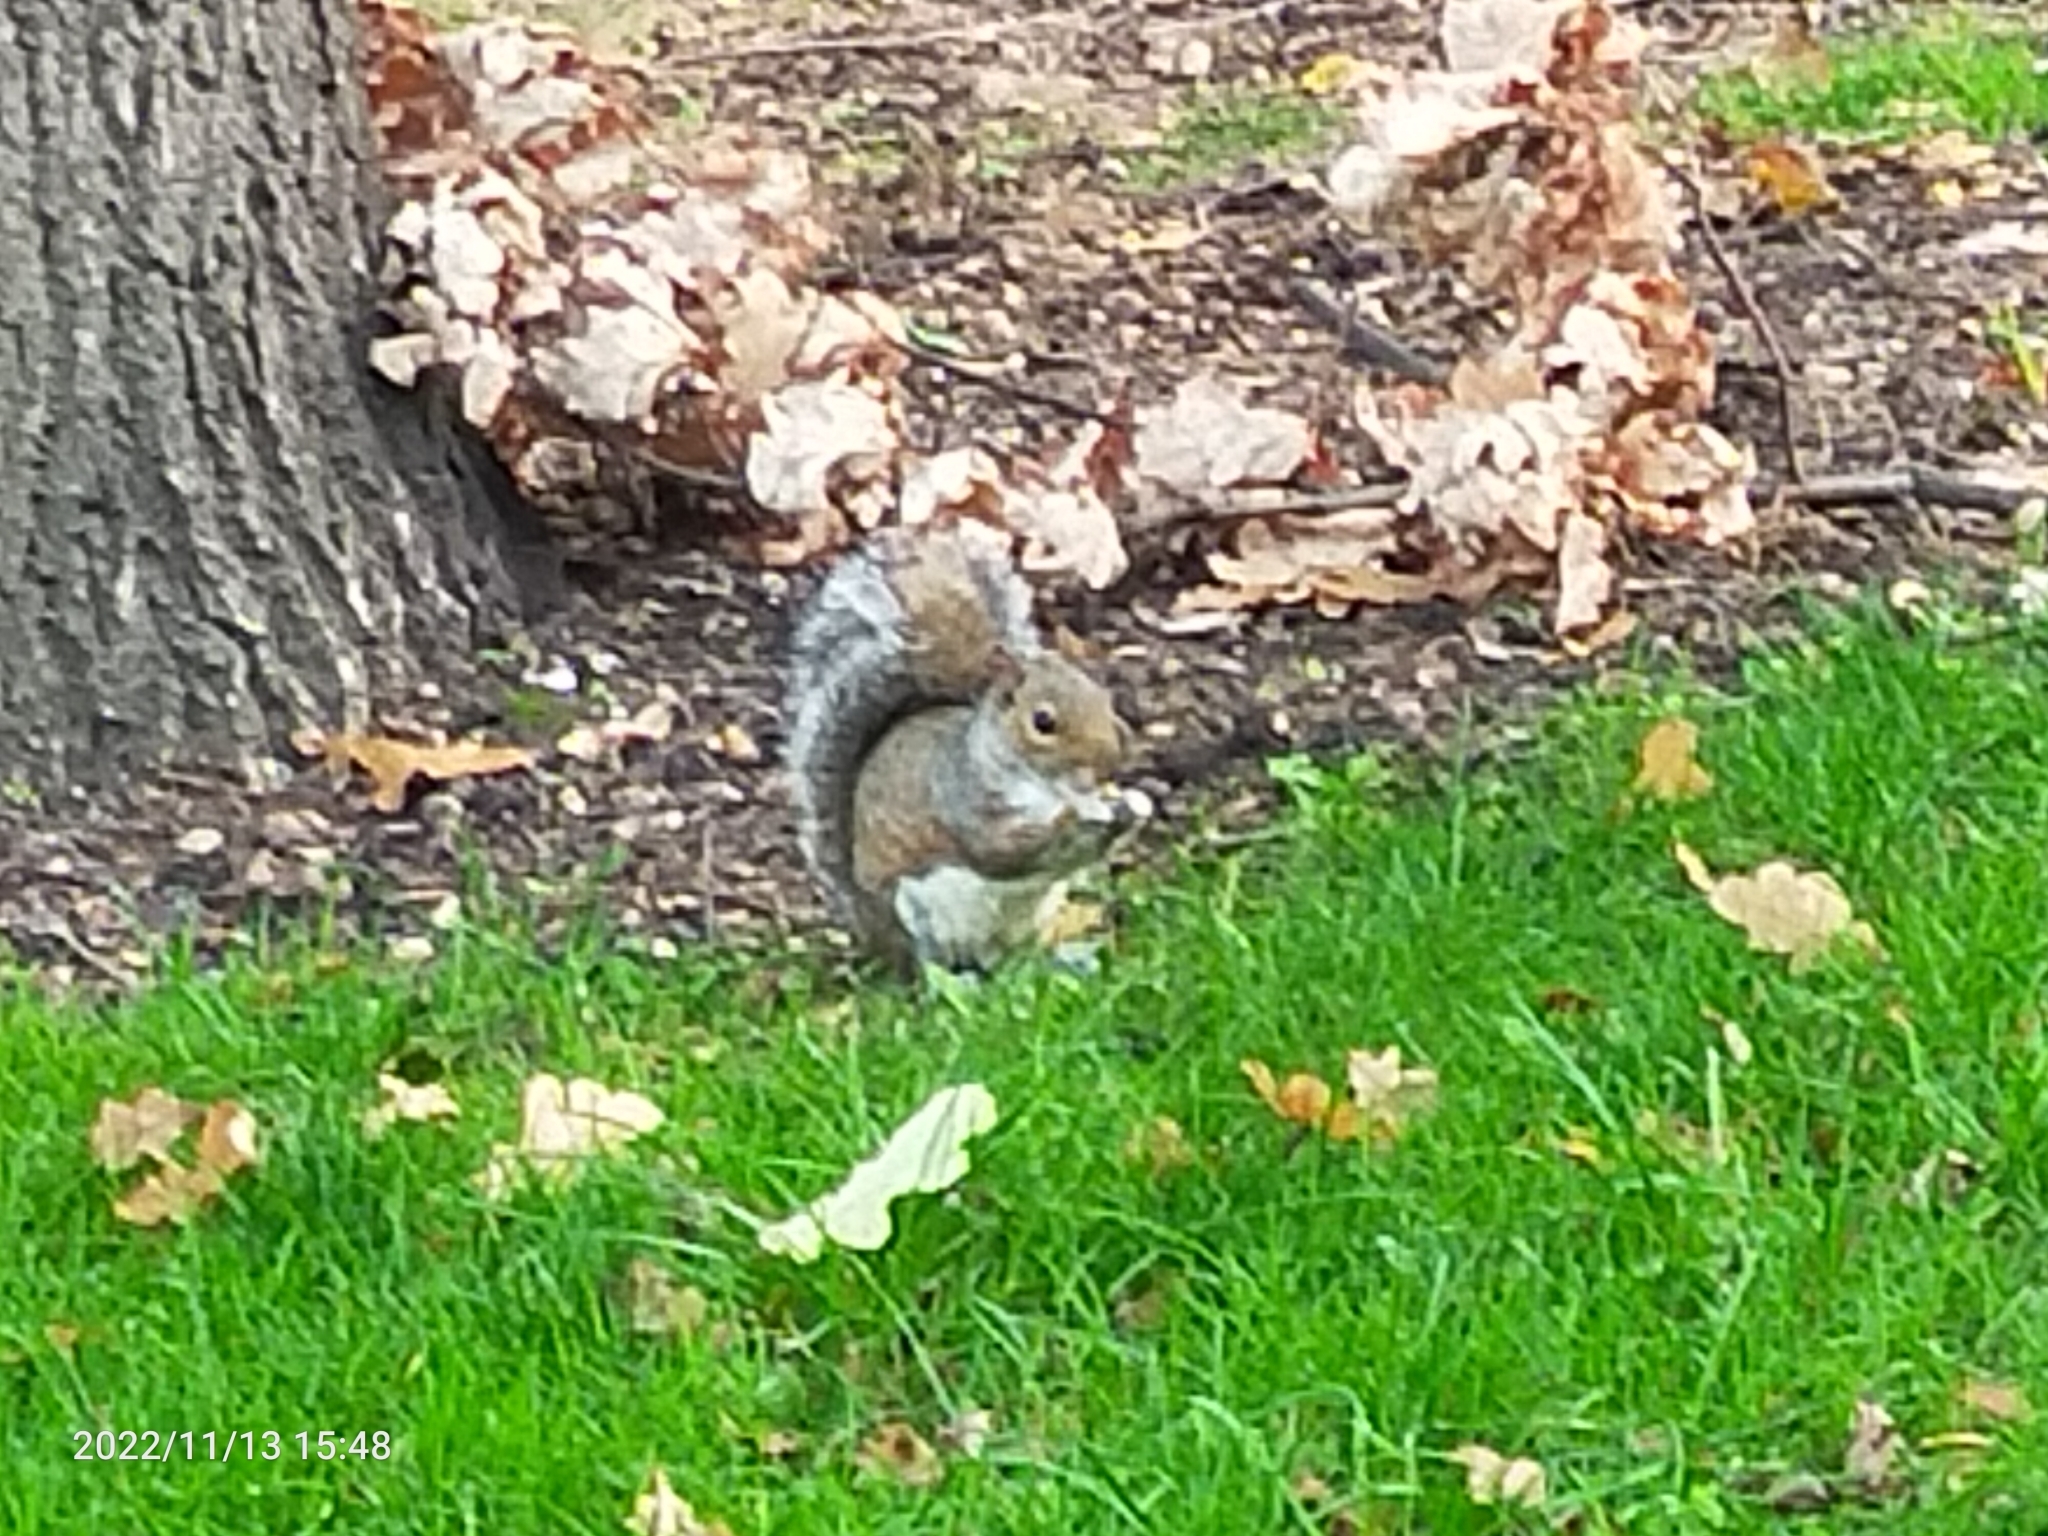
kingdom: Animalia
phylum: Chordata
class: Mammalia
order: Rodentia
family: Sciuridae
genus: Sciurus
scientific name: Sciurus carolinensis
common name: Eastern gray squirrel
